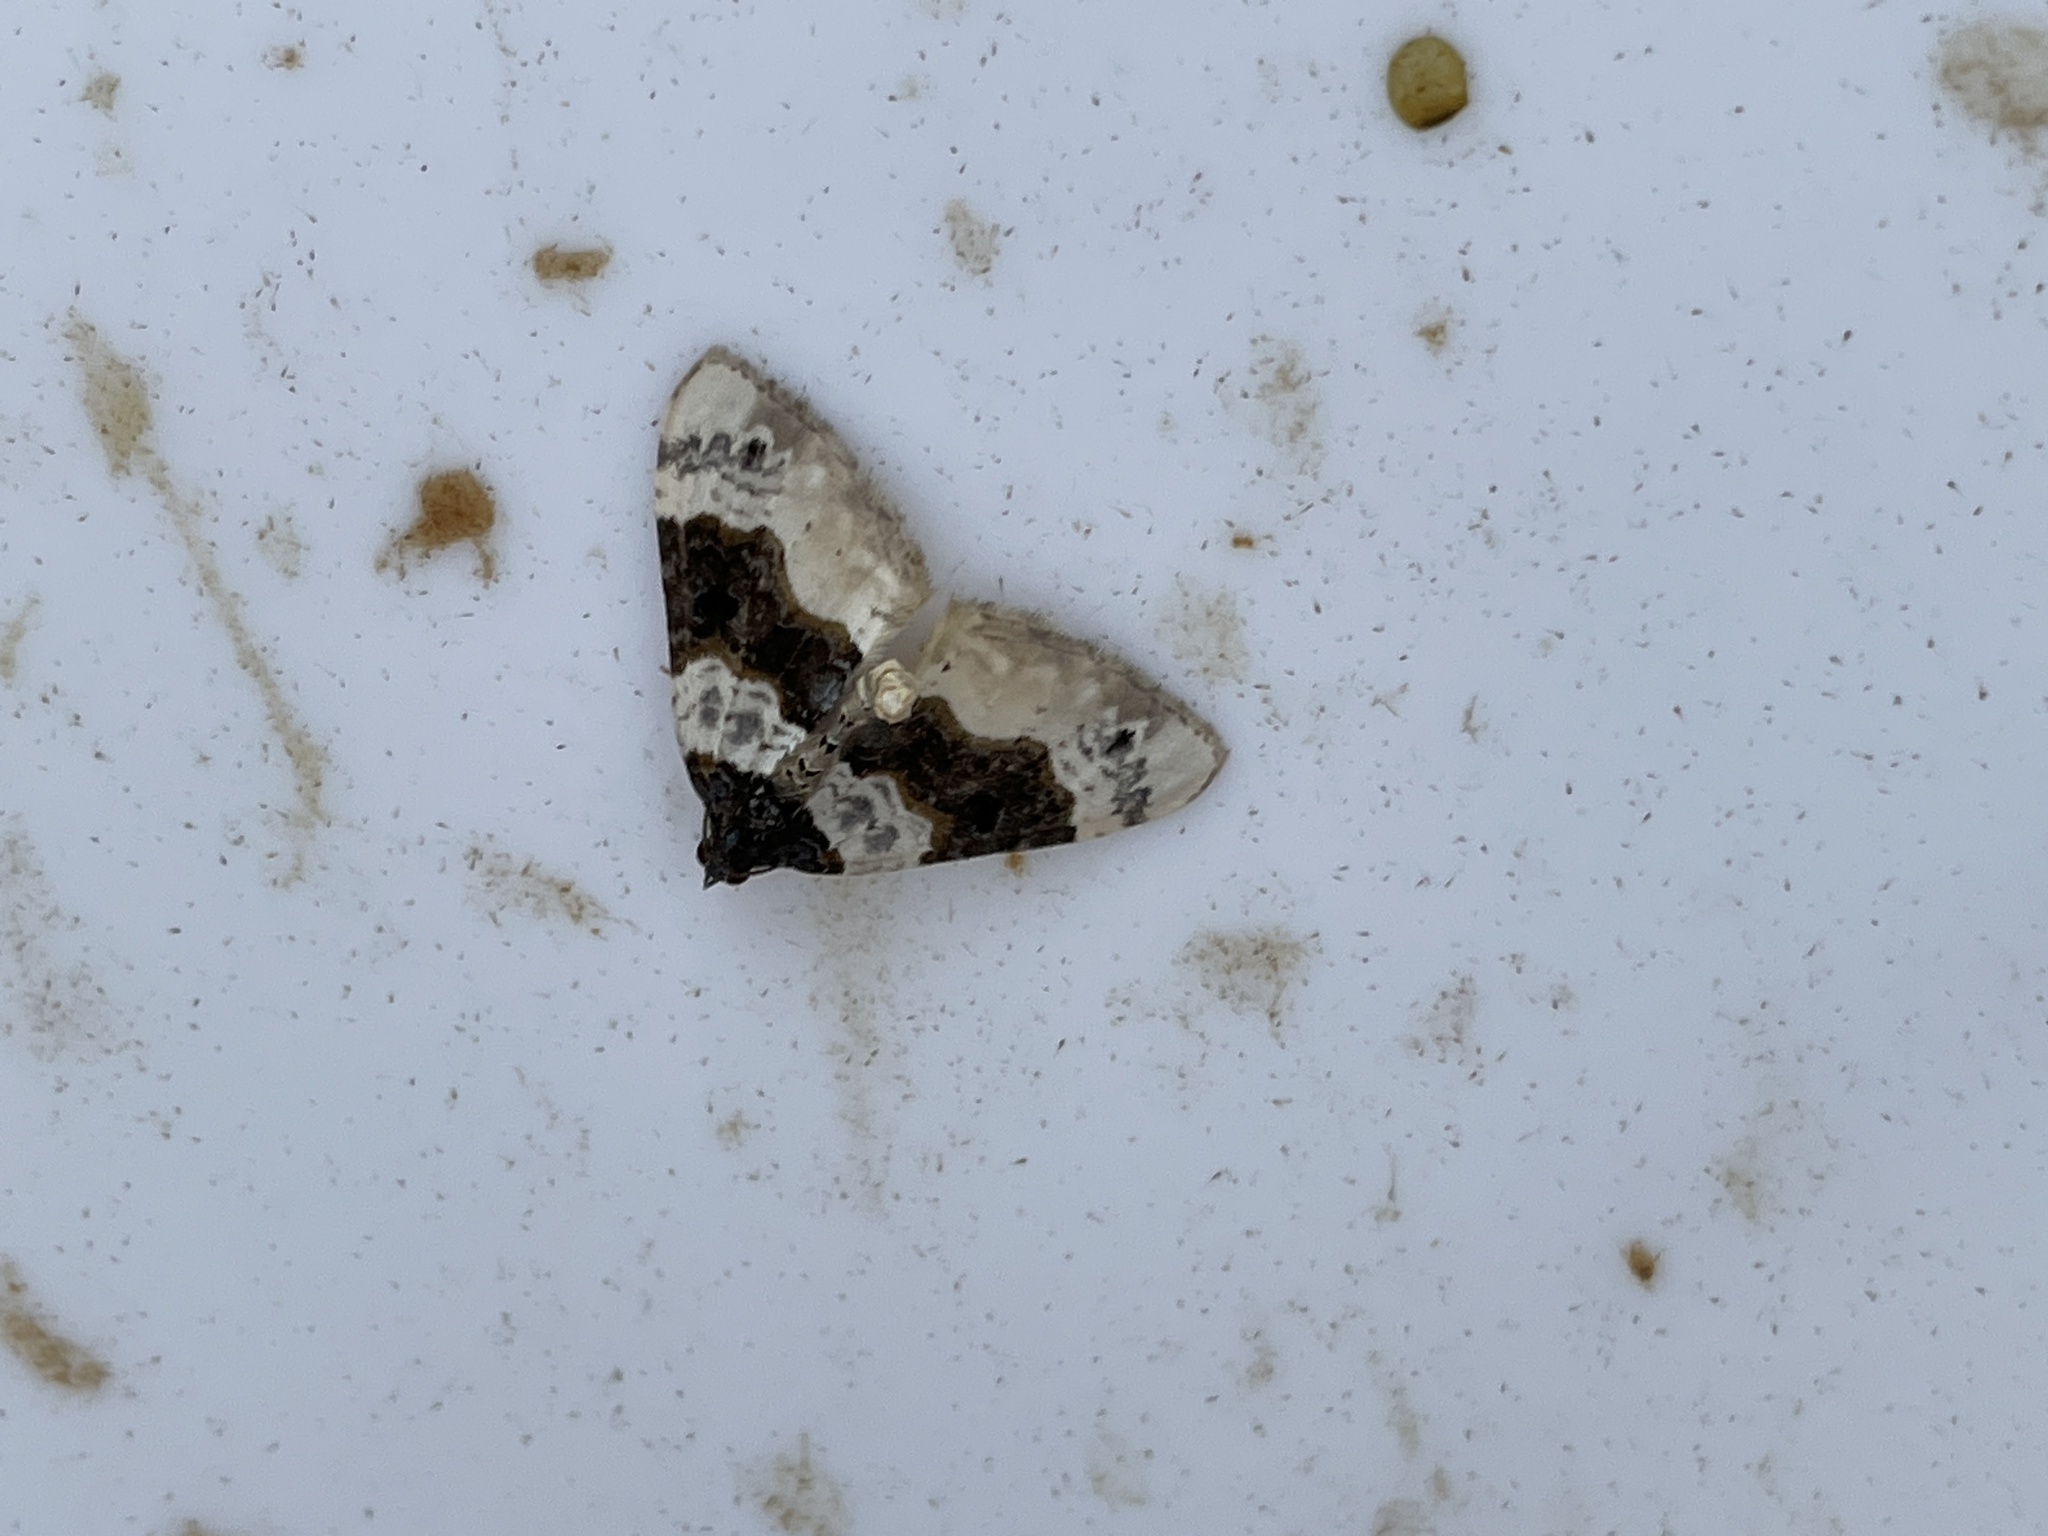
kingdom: Animalia
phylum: Arthropoda
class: Insecta
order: Lepidoptera
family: Geometridae
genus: Cosmorhoe
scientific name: Cosmorhoe ocellata
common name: Purple bar
